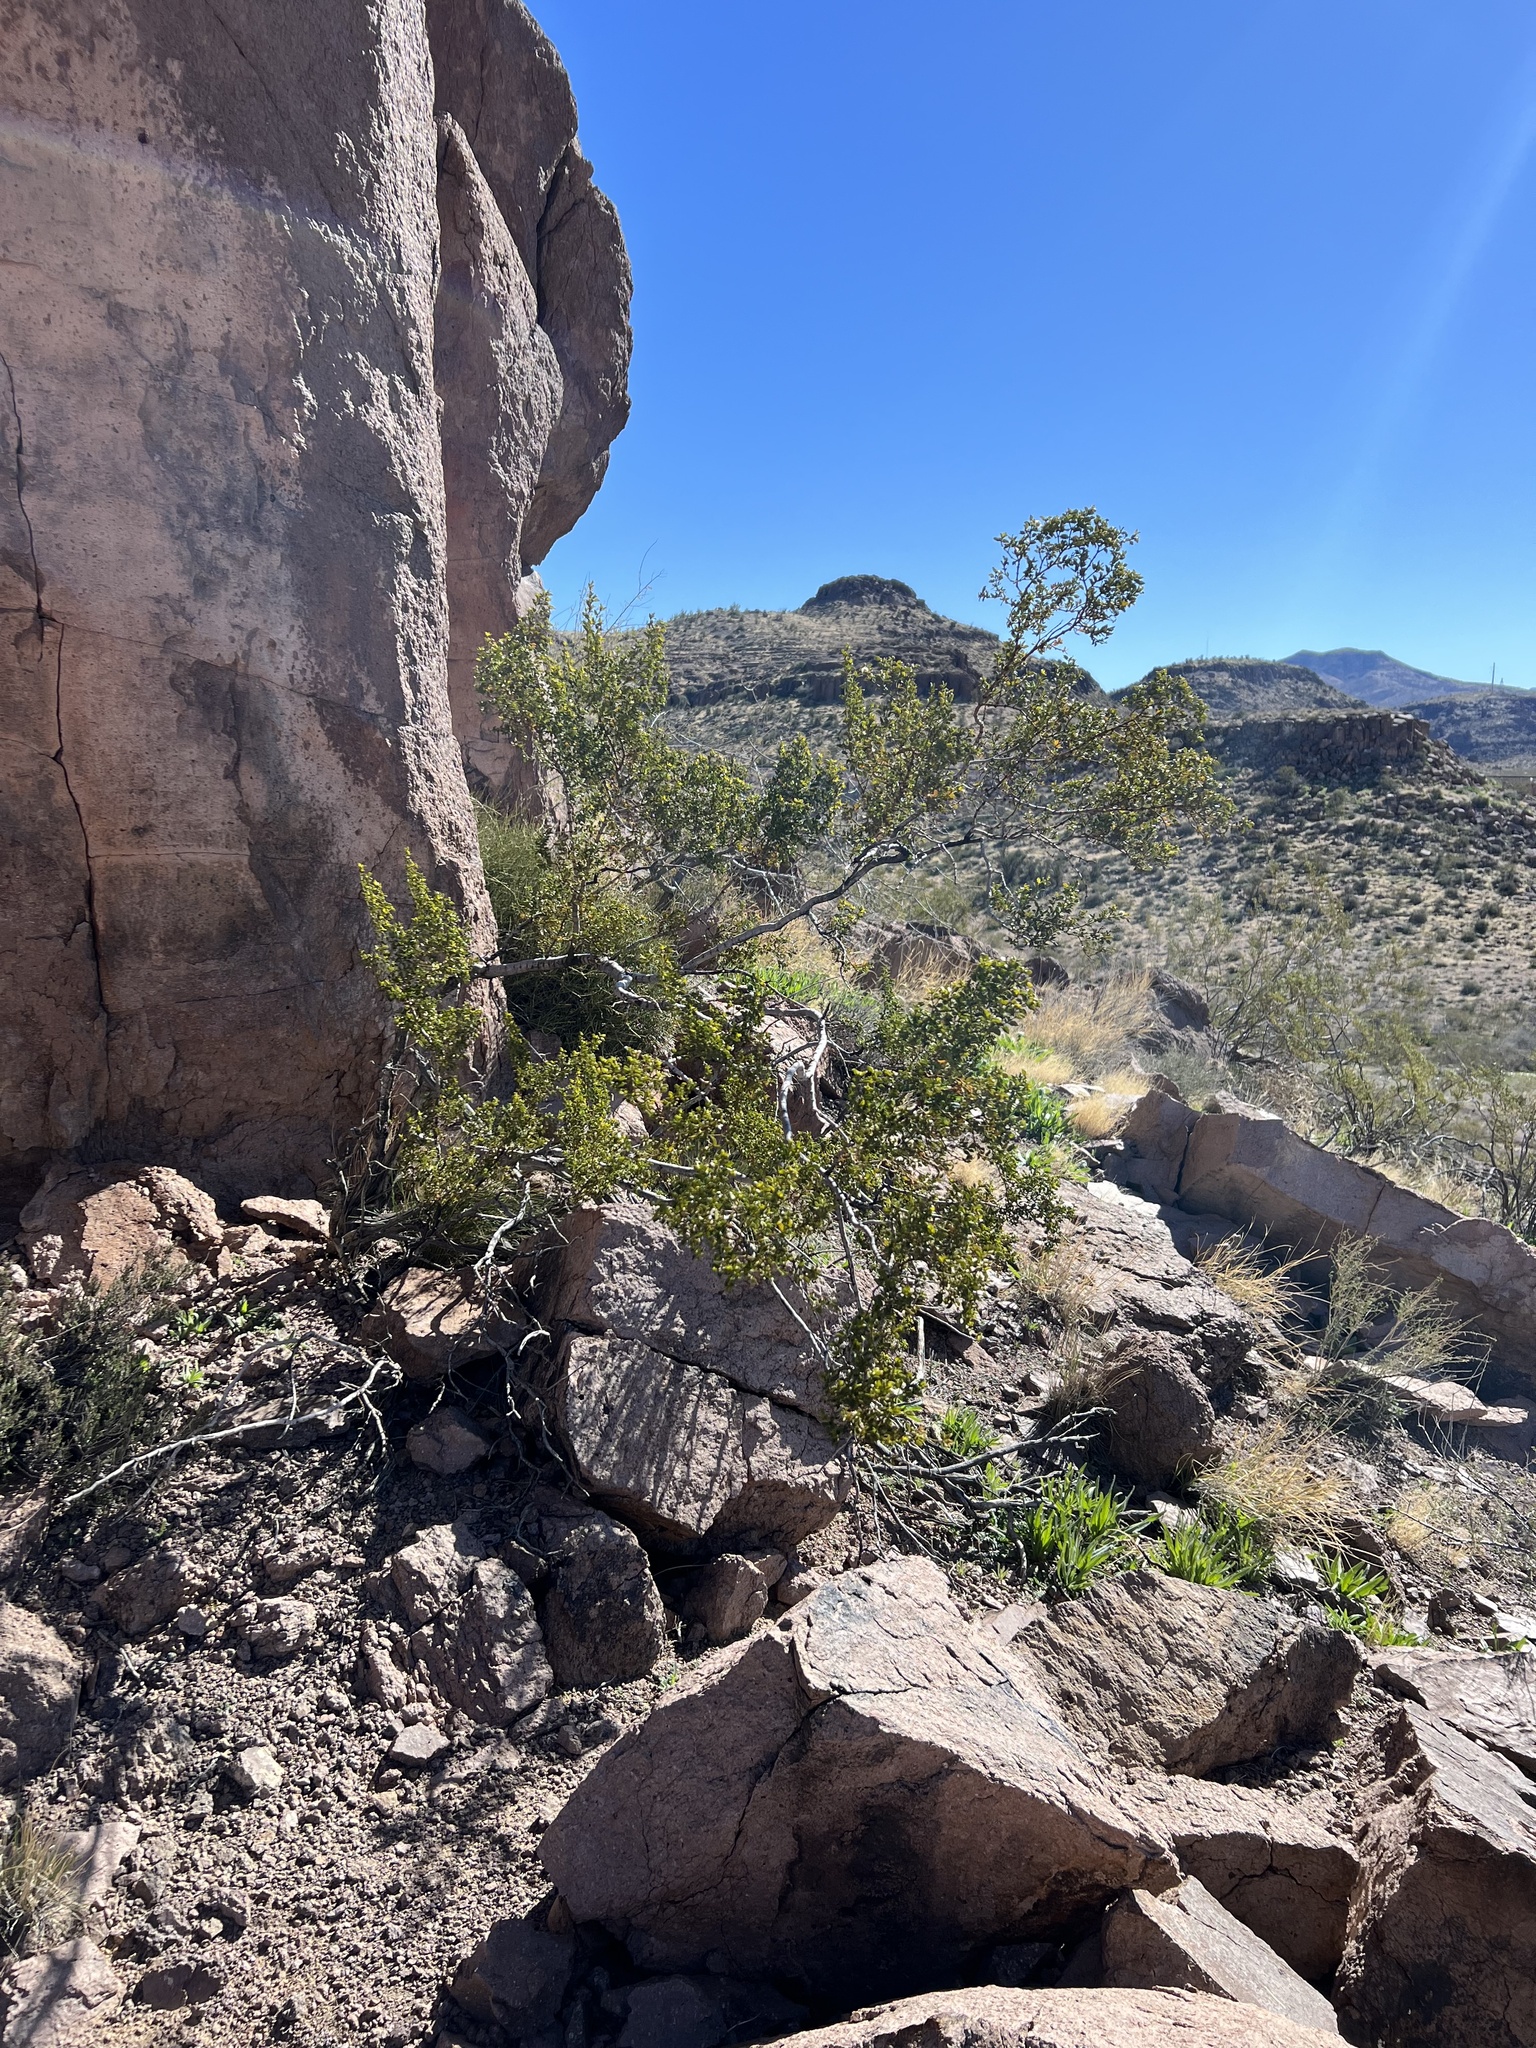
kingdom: Plantae
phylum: Tracheophyta
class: Magnoliopsida
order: Zygophyllales
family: Zygophyllaceae
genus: Larrea
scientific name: Larrea tridentata
